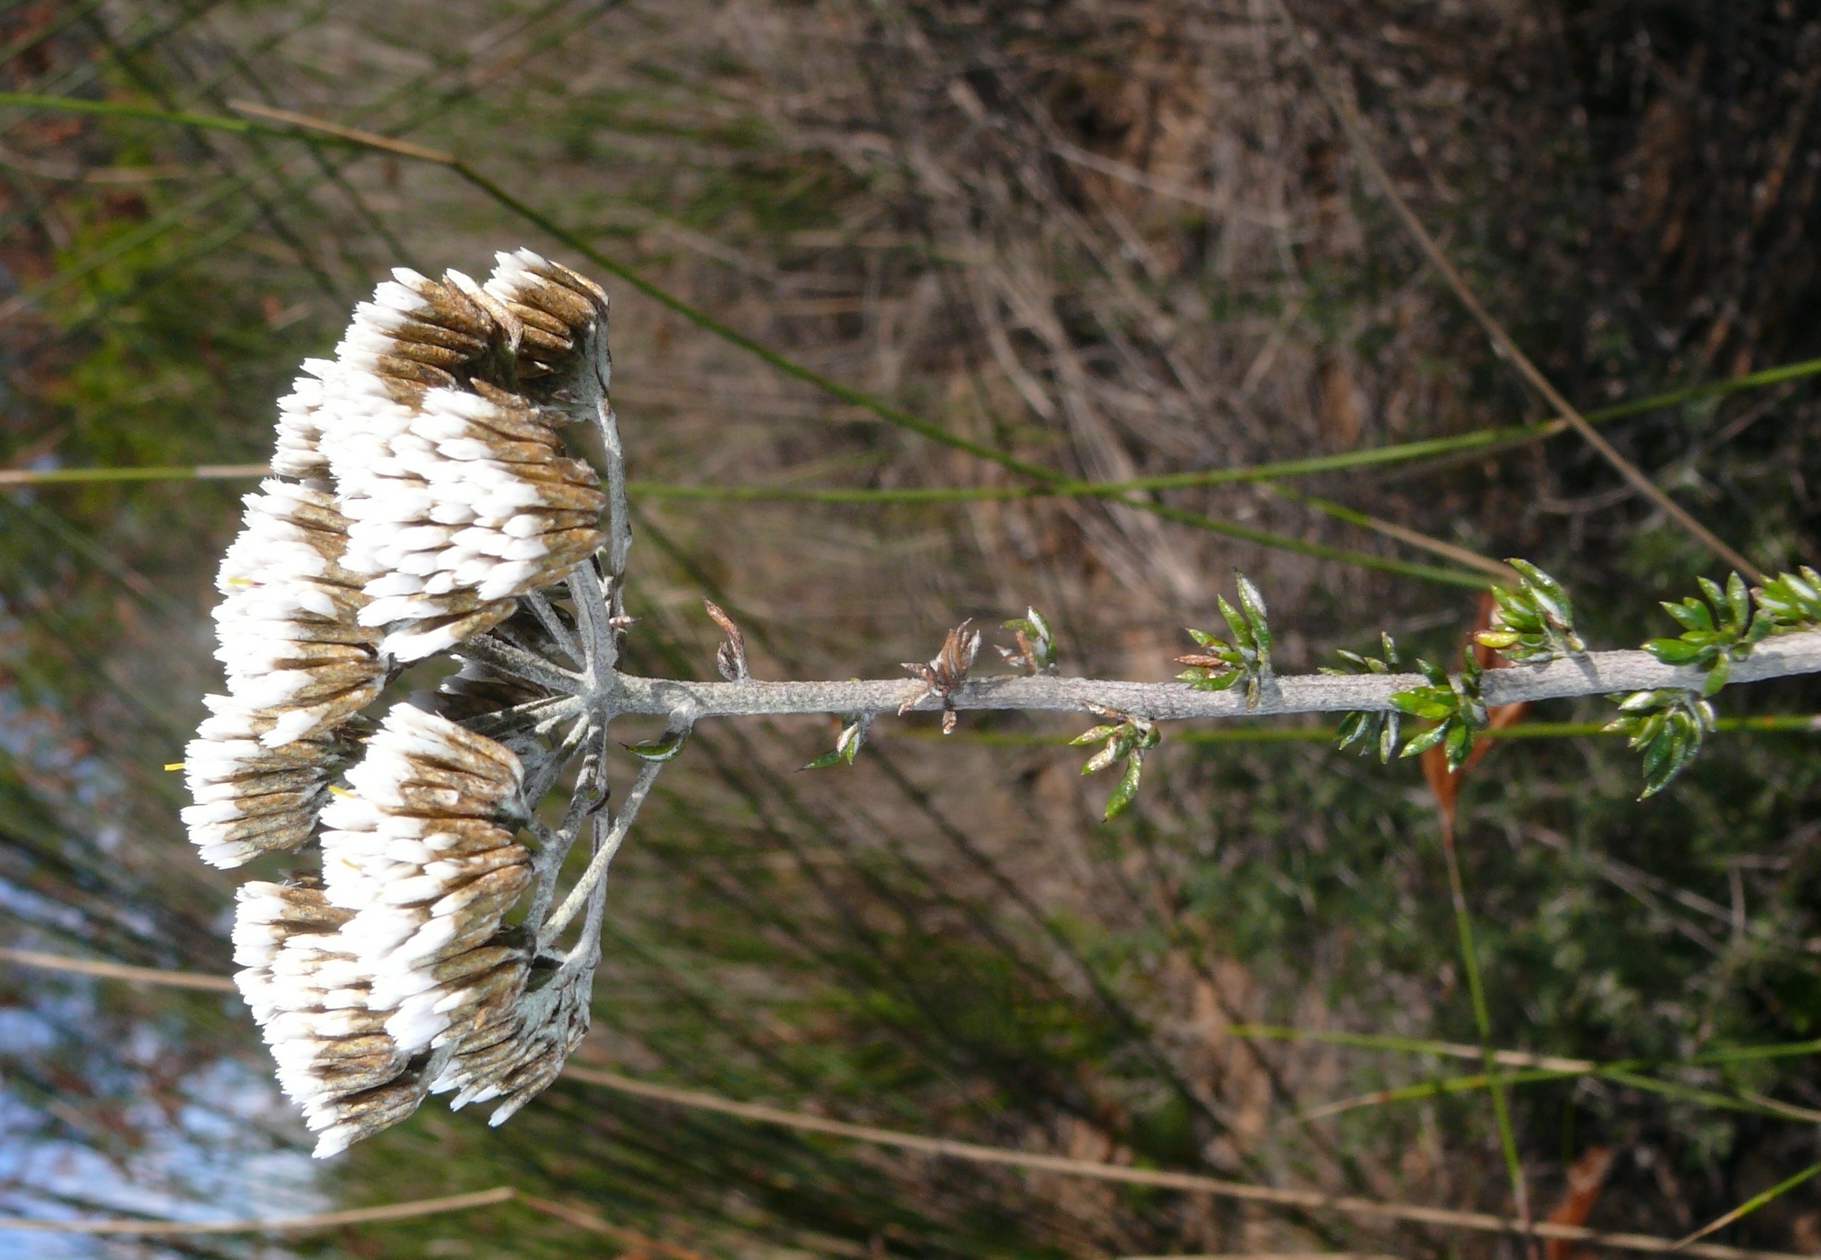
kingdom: Plantae
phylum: Tracheophyta
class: Magnoliopsida
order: Asterales
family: Asteraceae
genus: Metalasia
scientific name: Metalasia densa
